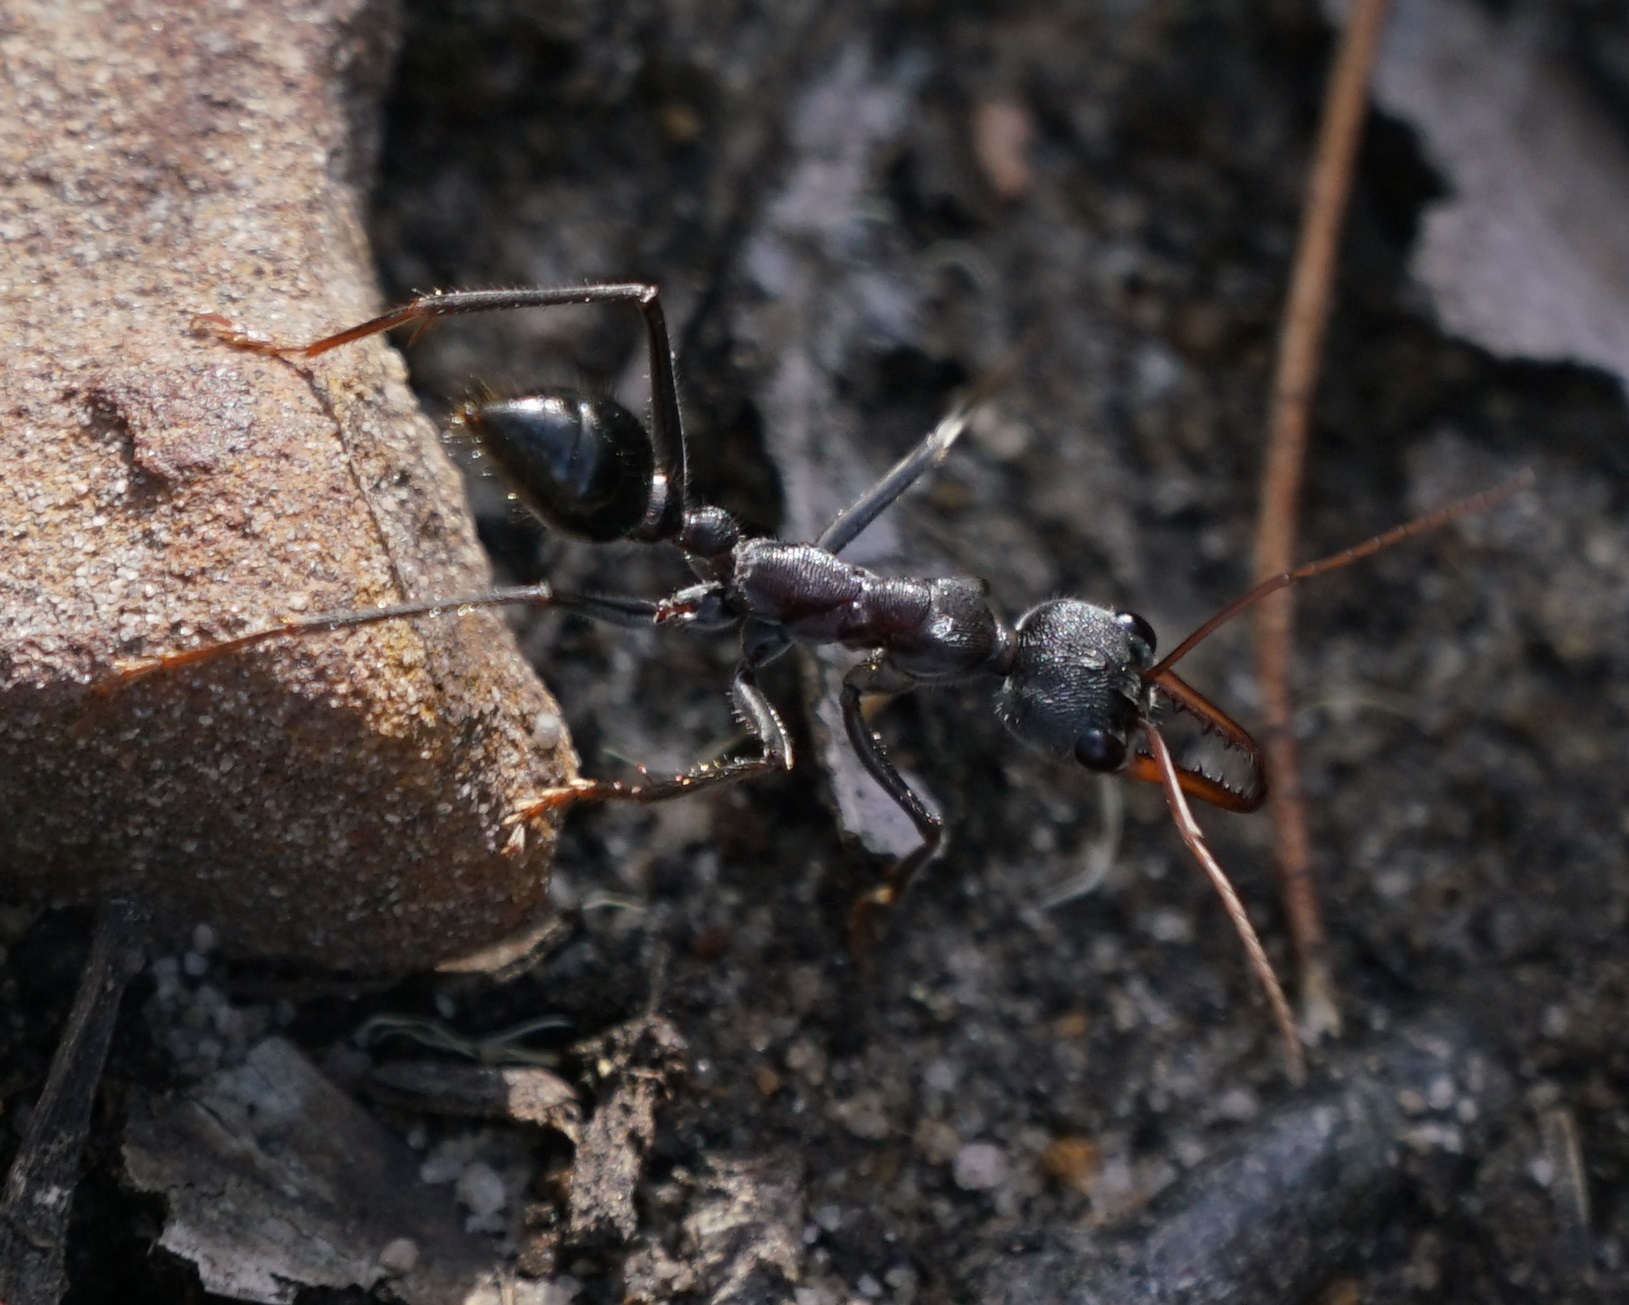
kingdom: Animalia
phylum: Arthropoda
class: Insecta
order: Hymenoptera
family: Formicidae
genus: Myrmecia
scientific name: Myrmecia simillima
